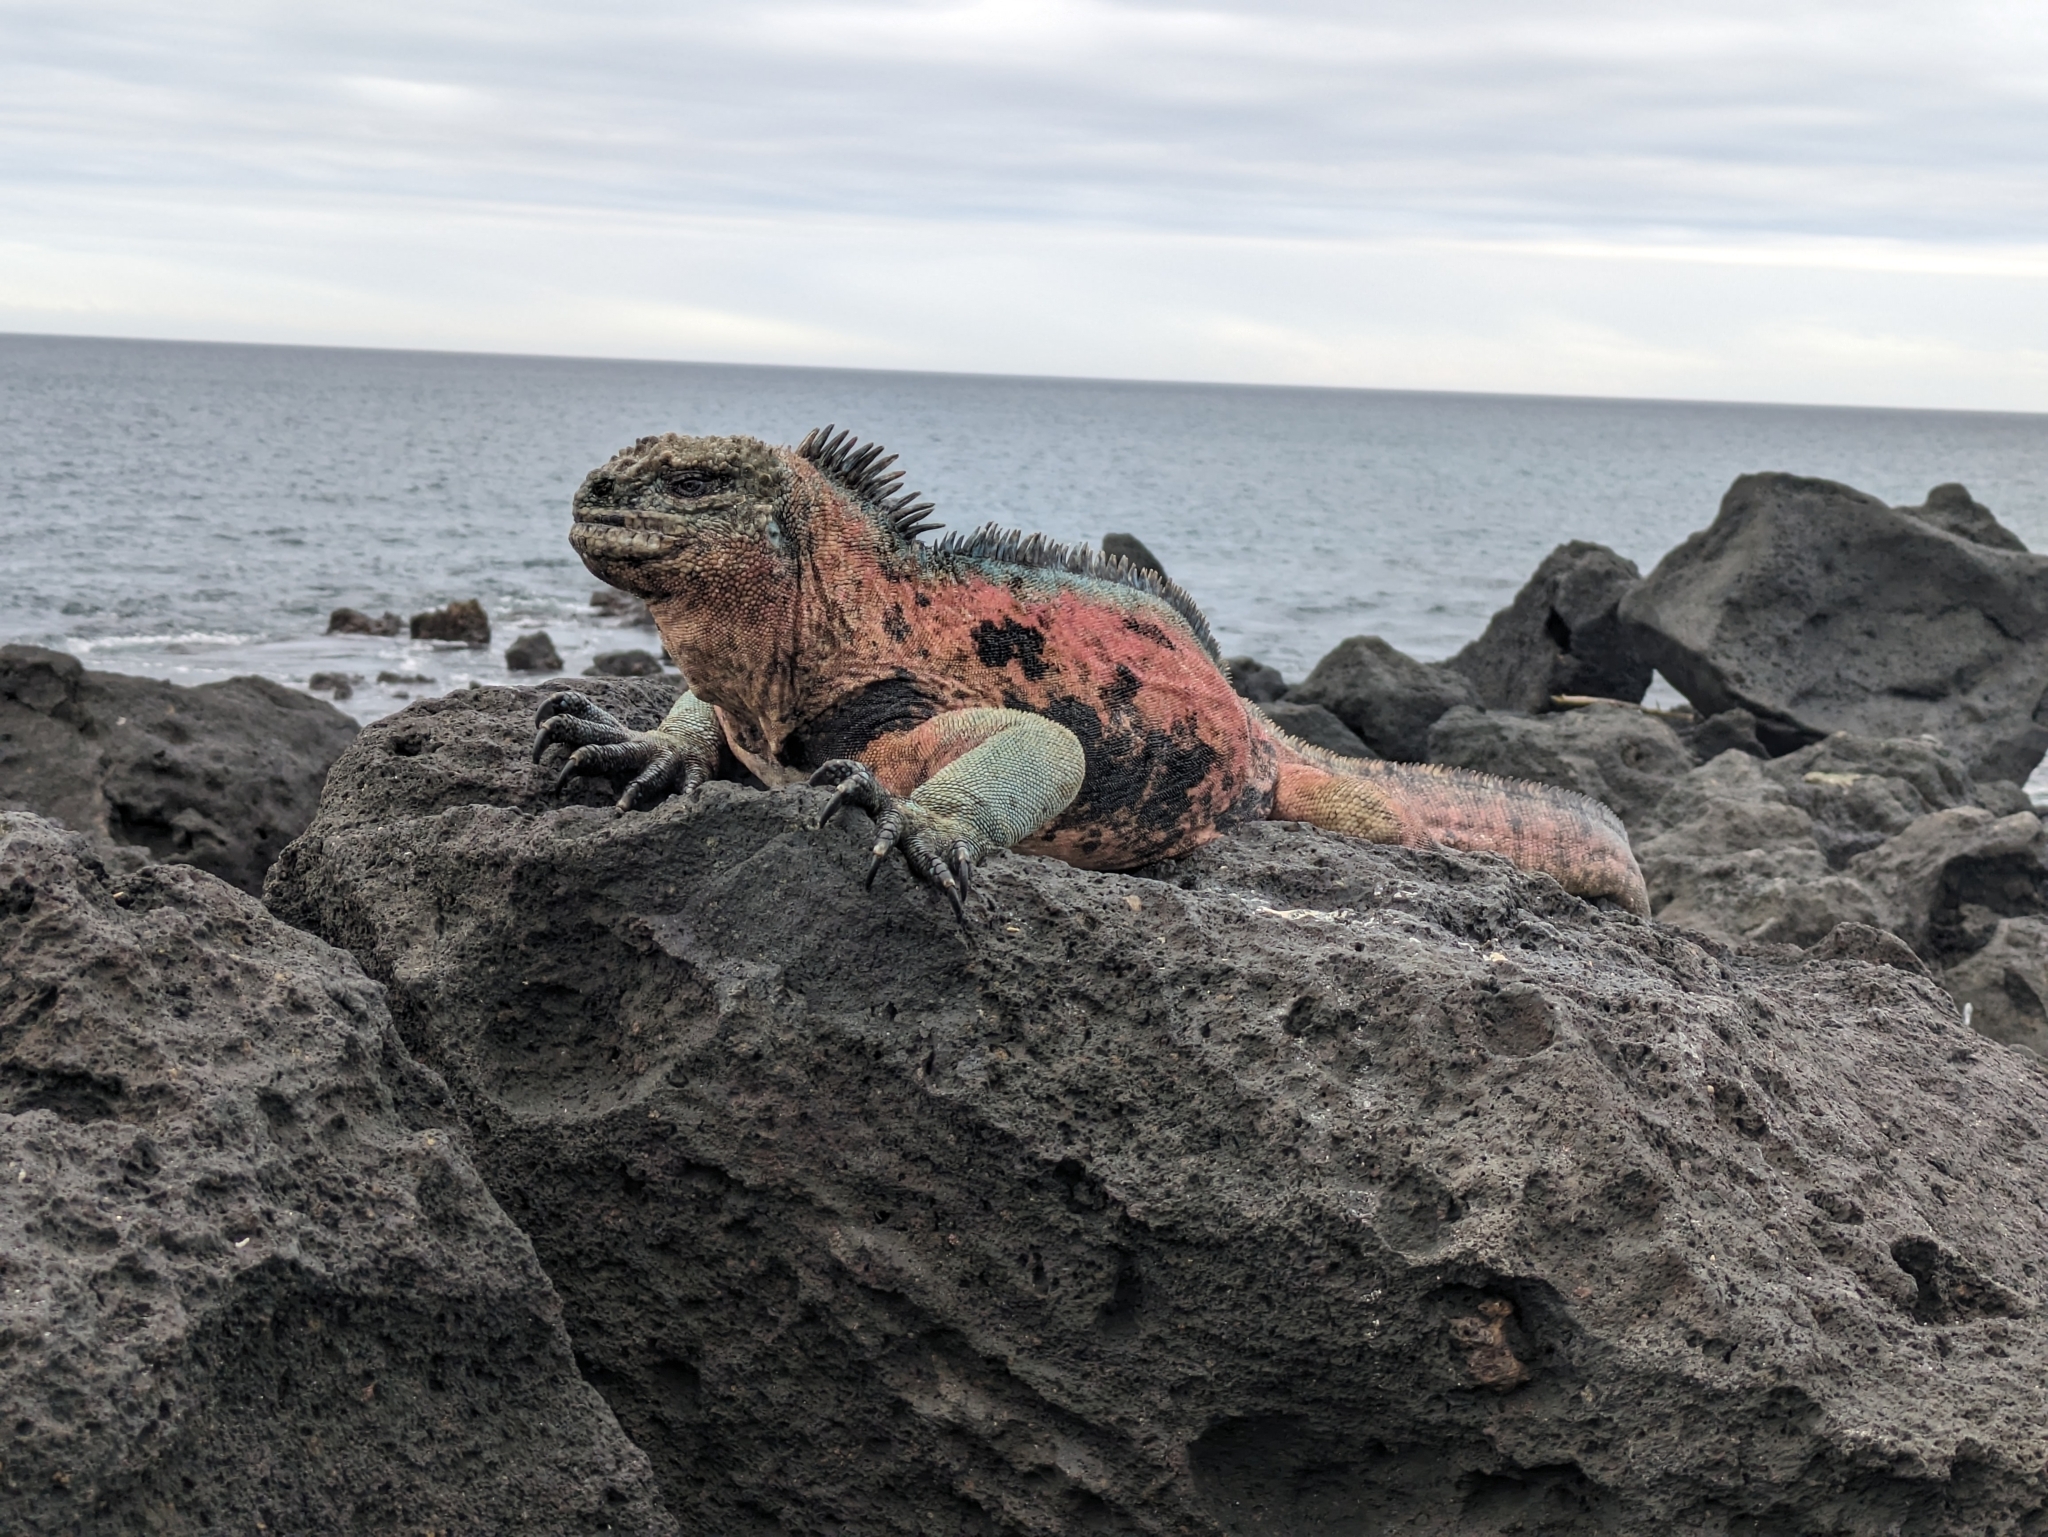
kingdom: Animalia
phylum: Chordata
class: Squamata
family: Iguanidae
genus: Amblyrhynchus
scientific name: Amblyrhynchus cristatus
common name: Marine iguana
